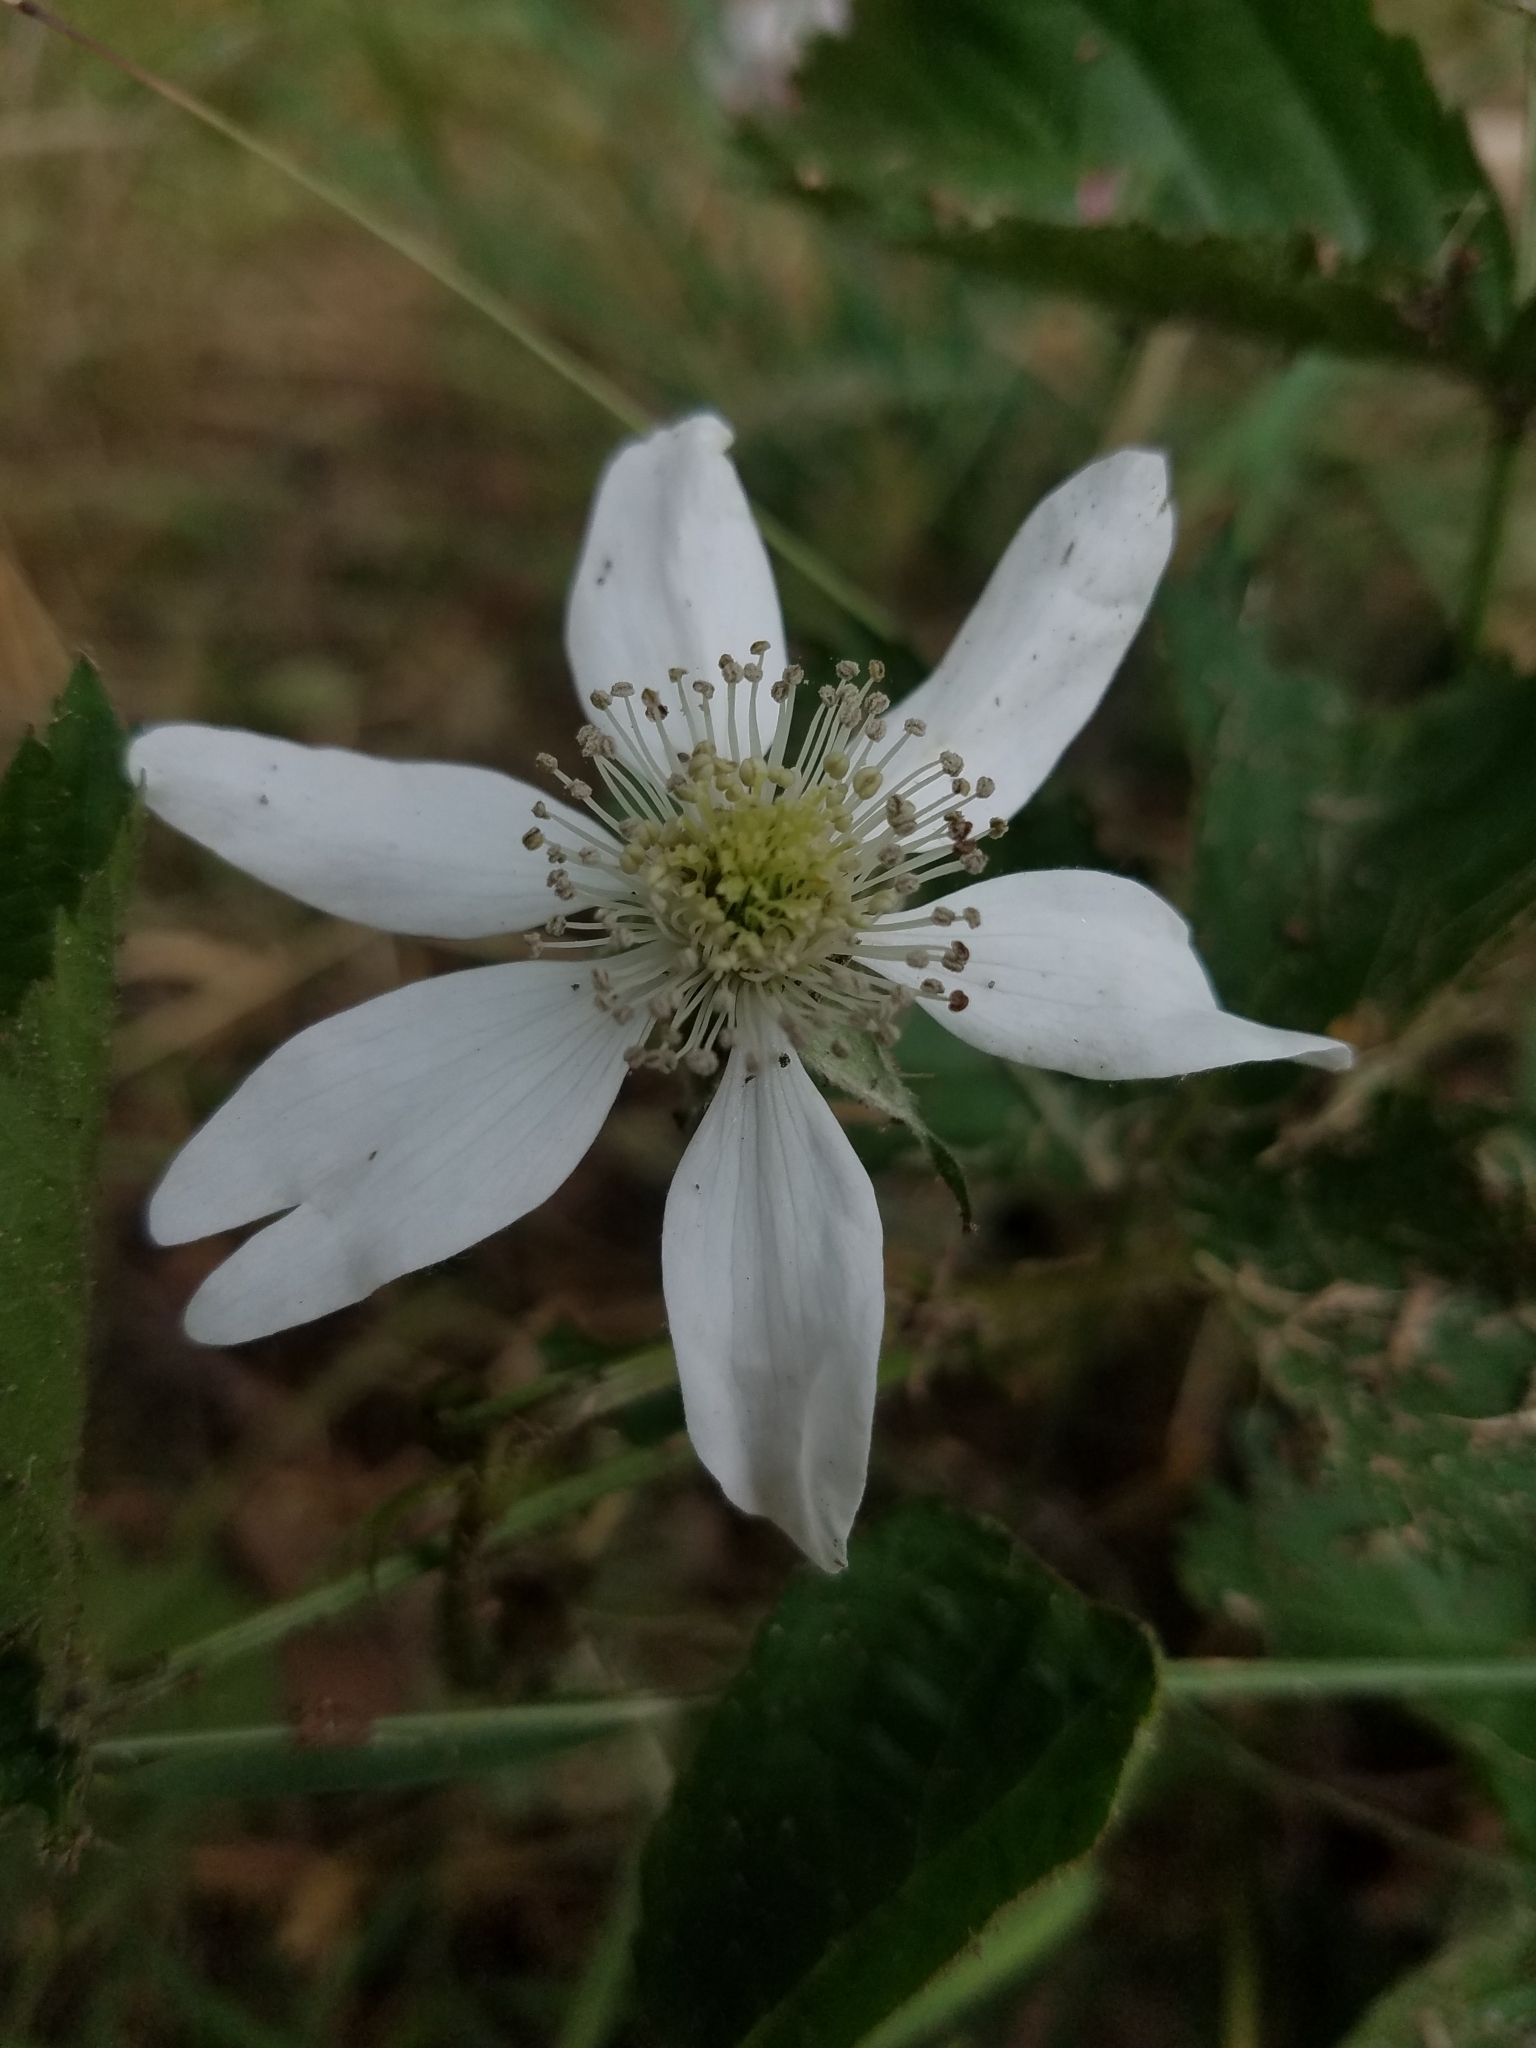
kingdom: Plantae
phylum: Tracheophyta
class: Magnoliopsida
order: Rosales
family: Rosaceae
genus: Rubus
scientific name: Rubus pensilvanicus
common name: Pennsylvania blackberry
